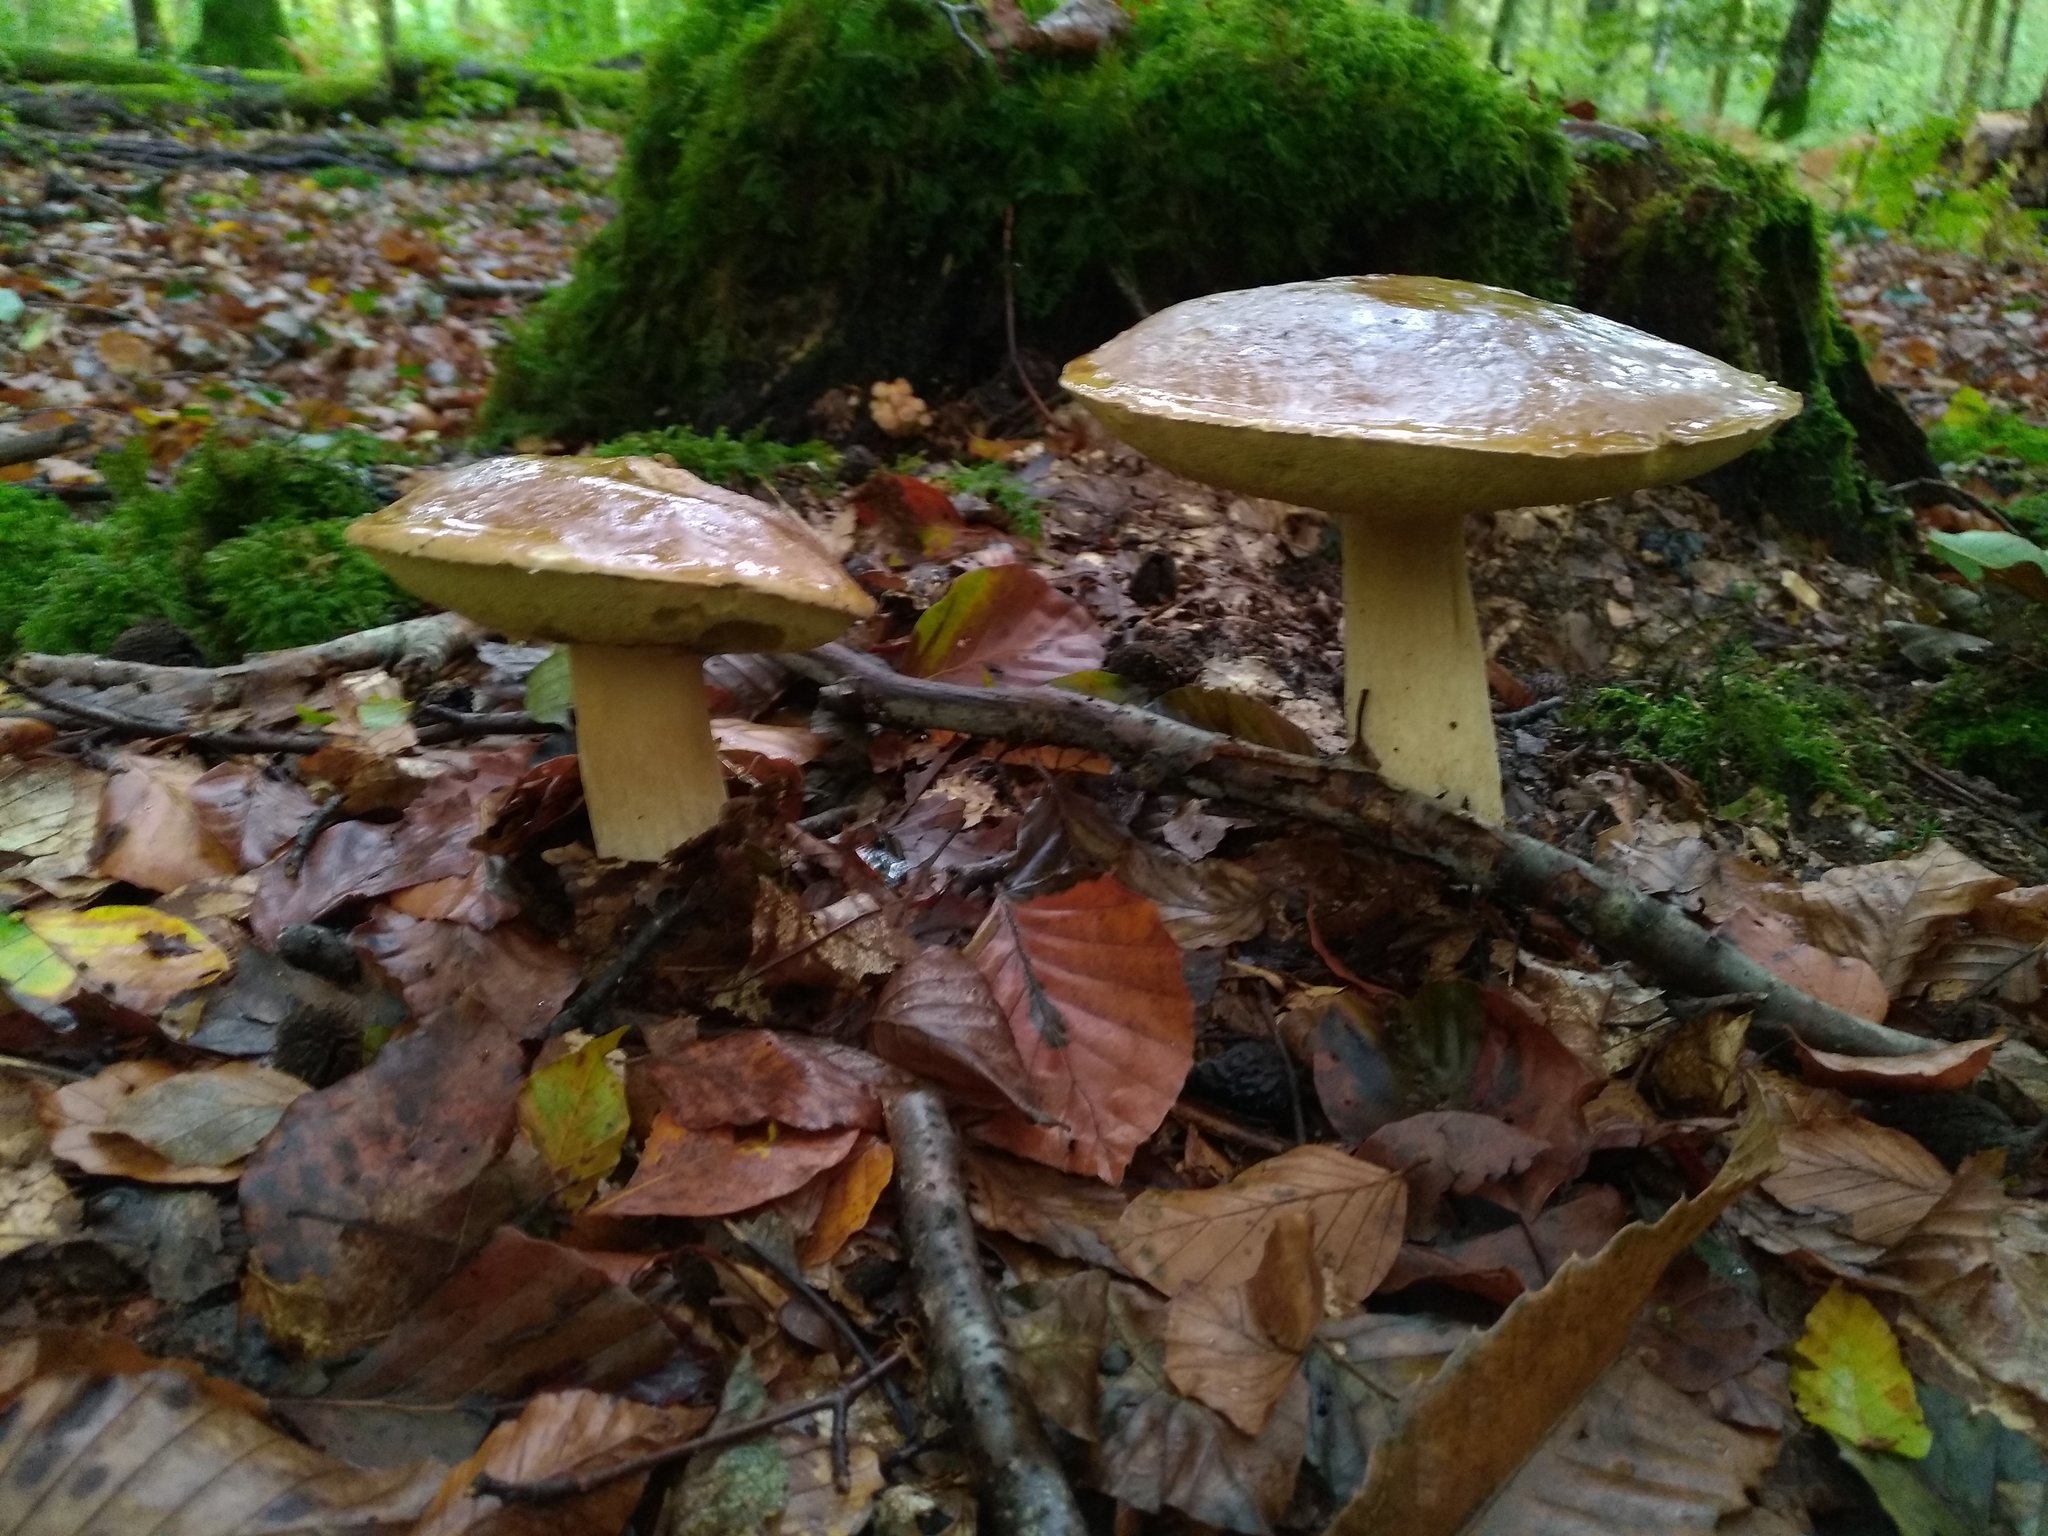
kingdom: Fungi
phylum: Basidiomycota
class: Agaricomycetes
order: Boletales
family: Boletaceae
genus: Boletus
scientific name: Boletus edulis
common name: Cep
